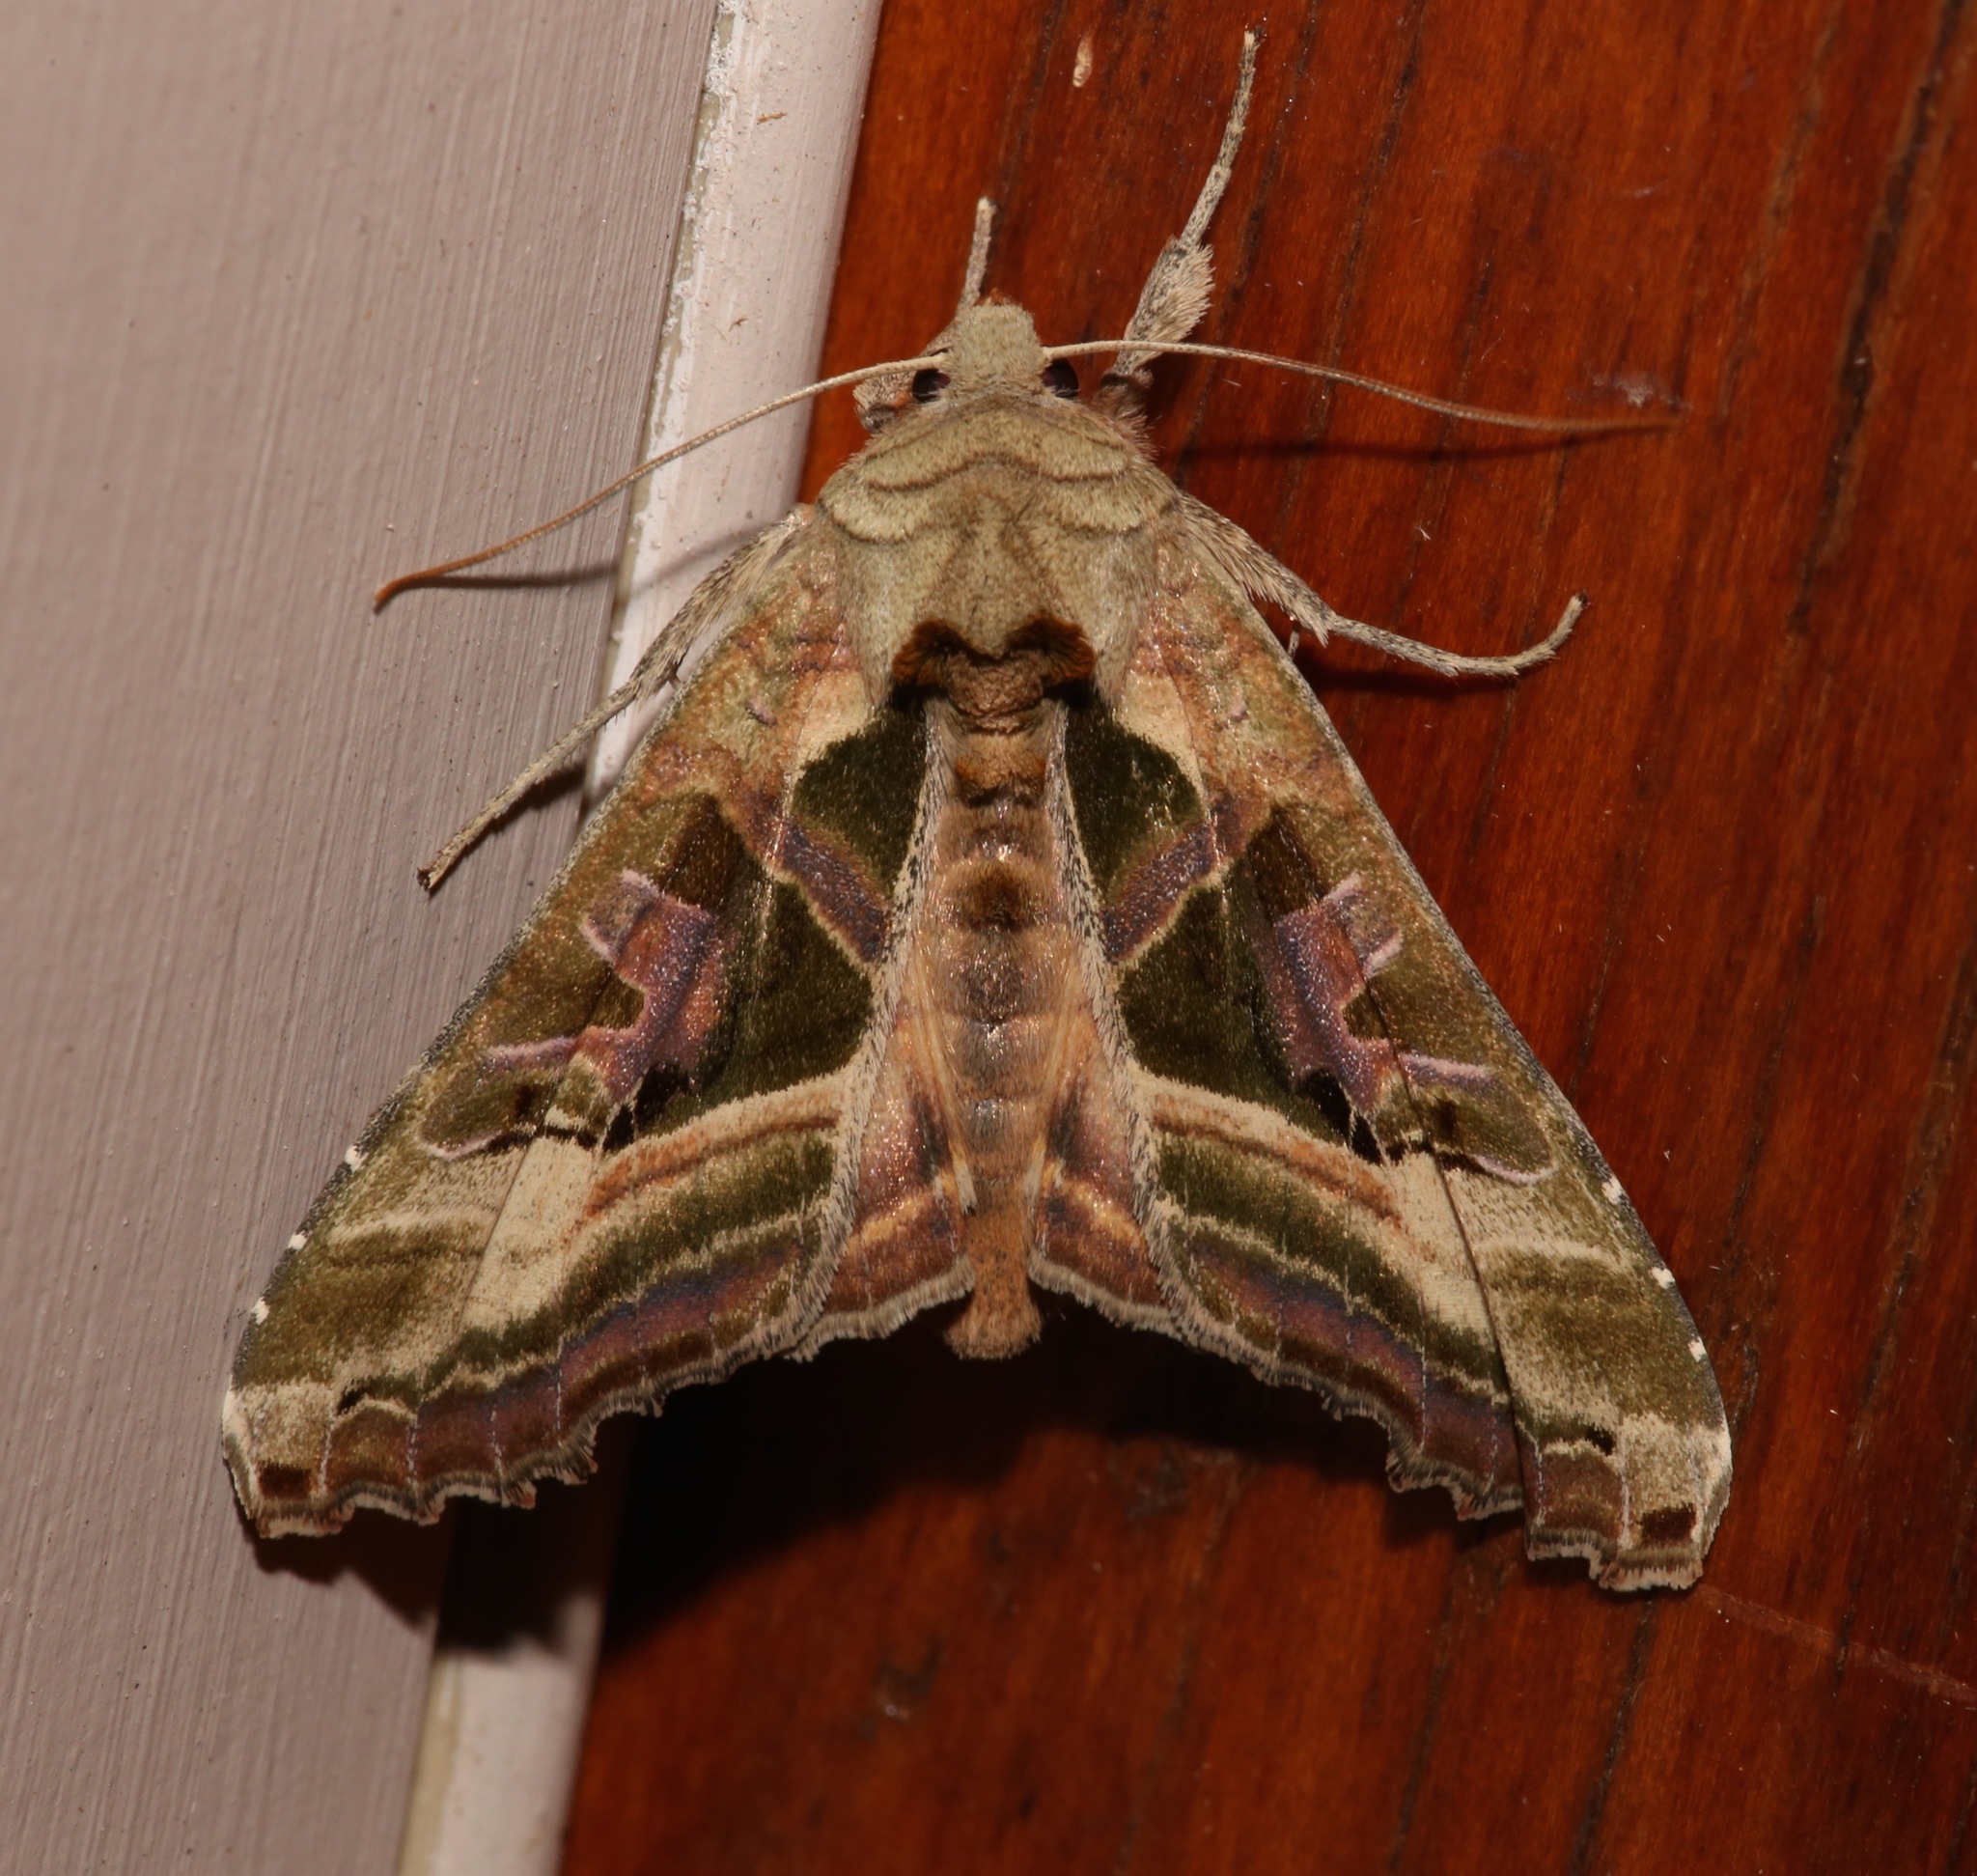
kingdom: Animalia
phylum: Arthropoda
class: Insecta
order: Lepidoptera
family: Noctuidae
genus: Phlogophora
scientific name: Phlogophora iris
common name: Olive angle shades
